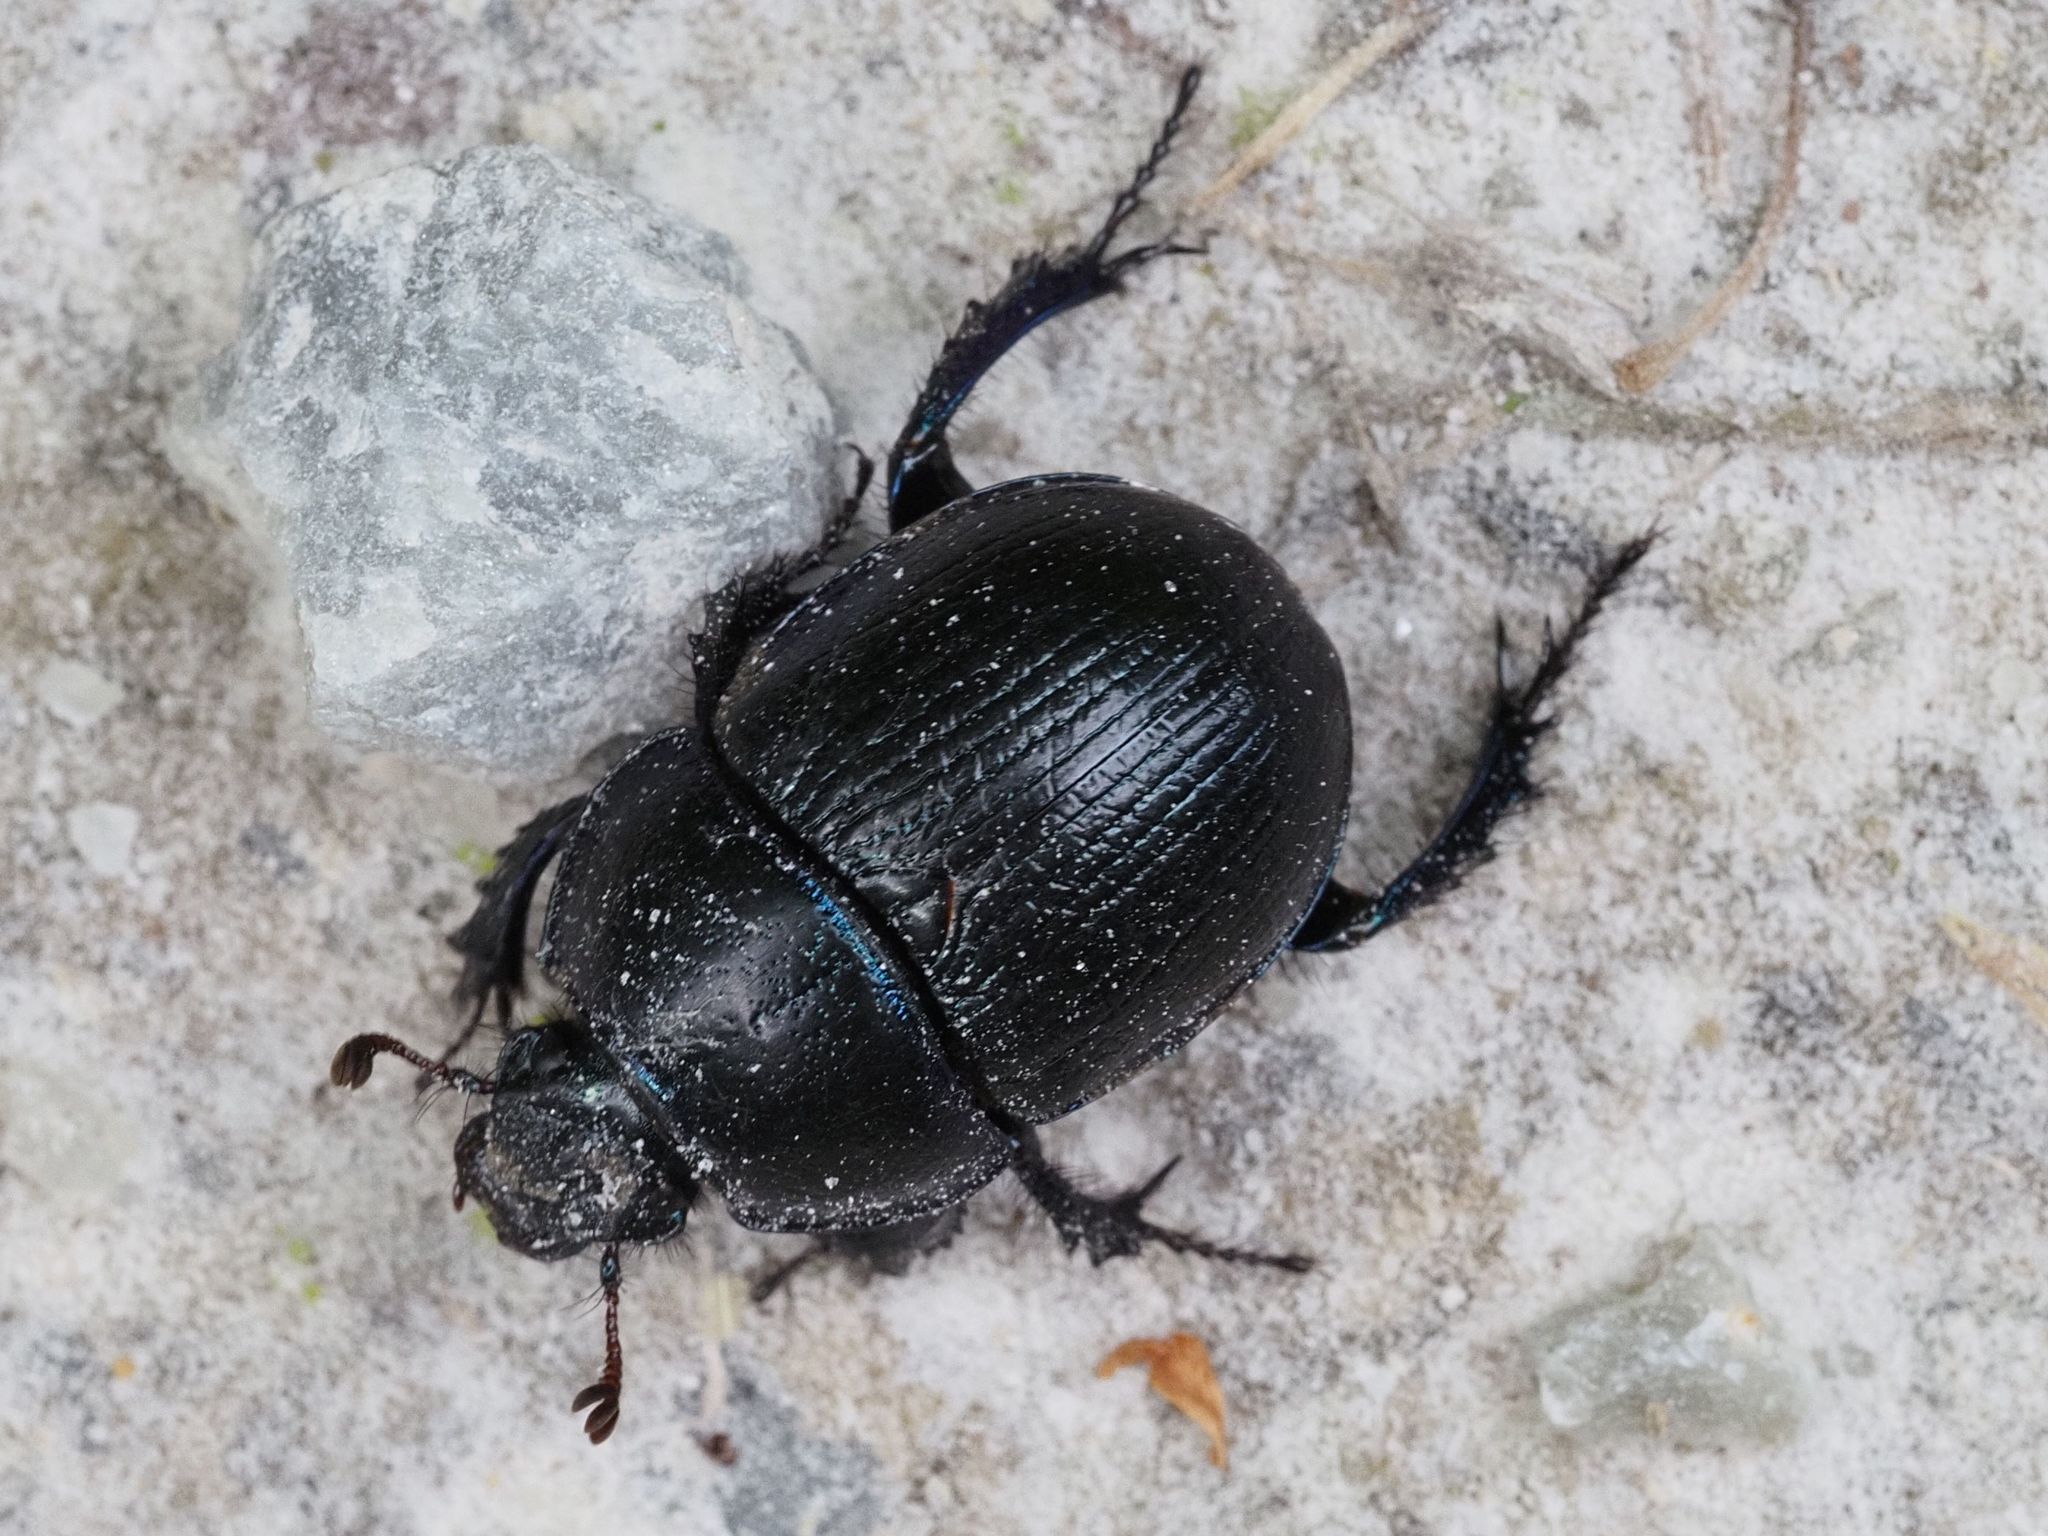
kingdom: Animalia
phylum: Arthropoda
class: Insecta
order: Coleoptera
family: Geotrupidae
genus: Anoplotrupes
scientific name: Anoplotrupes stercorosus
